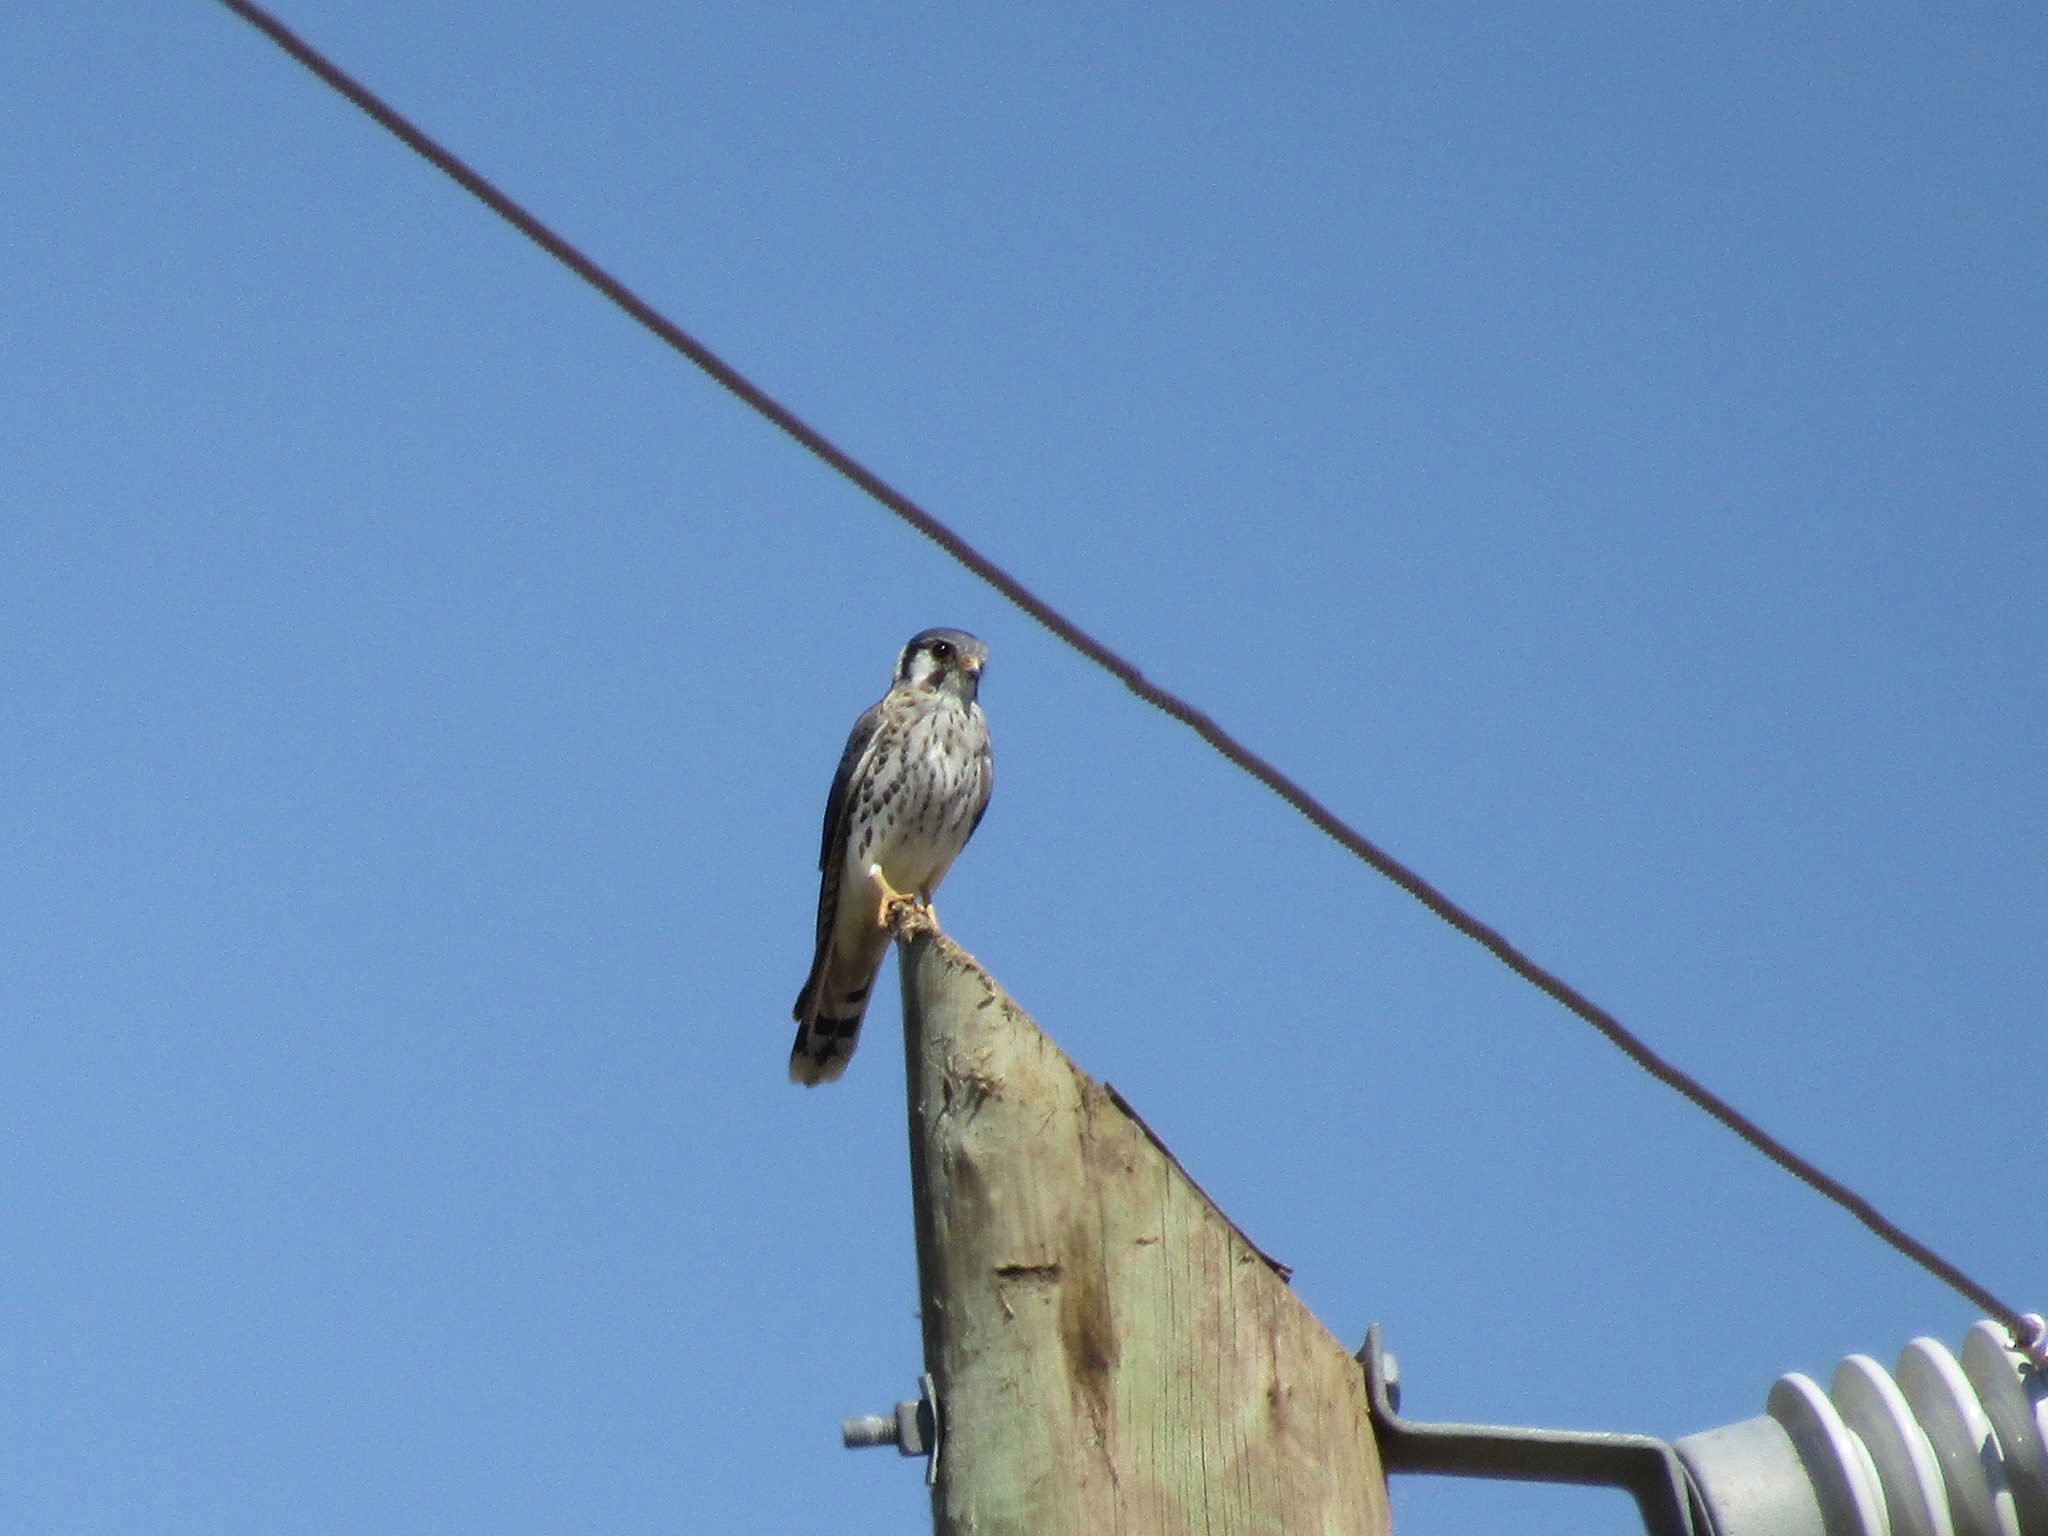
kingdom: Animalia
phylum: Chordata
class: Aves
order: Falconiformes
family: Falconidae
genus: Falco
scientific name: Falco sparverius
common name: American kestrel
